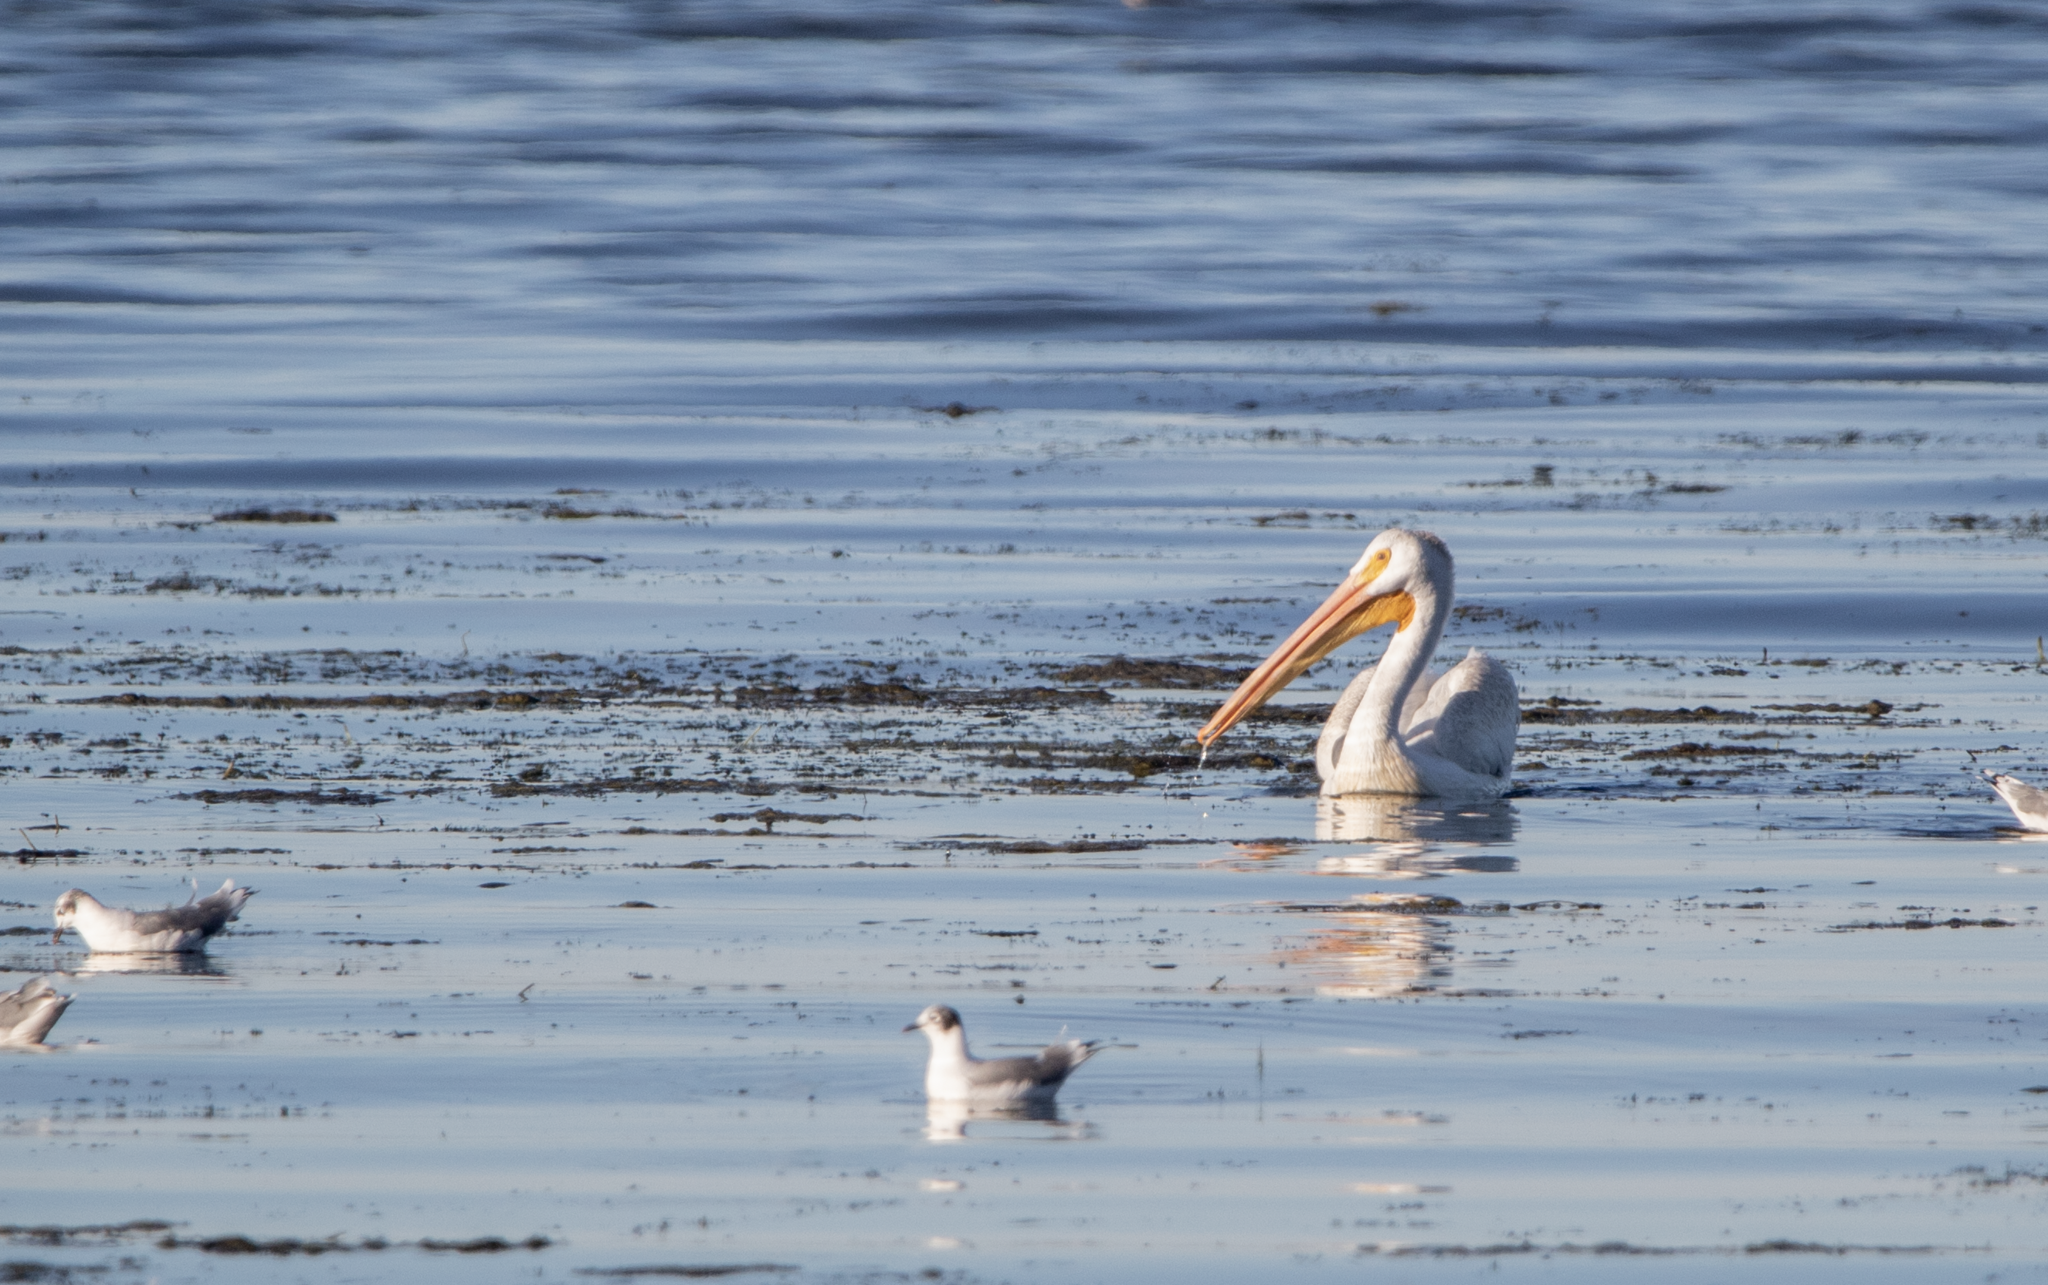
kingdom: Animalia
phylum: Chordata
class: Aves
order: Pelecaniformes
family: Pelecanidae
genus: Pelecanus
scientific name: Pelecanus erythrorhynchos
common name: American white pelican
